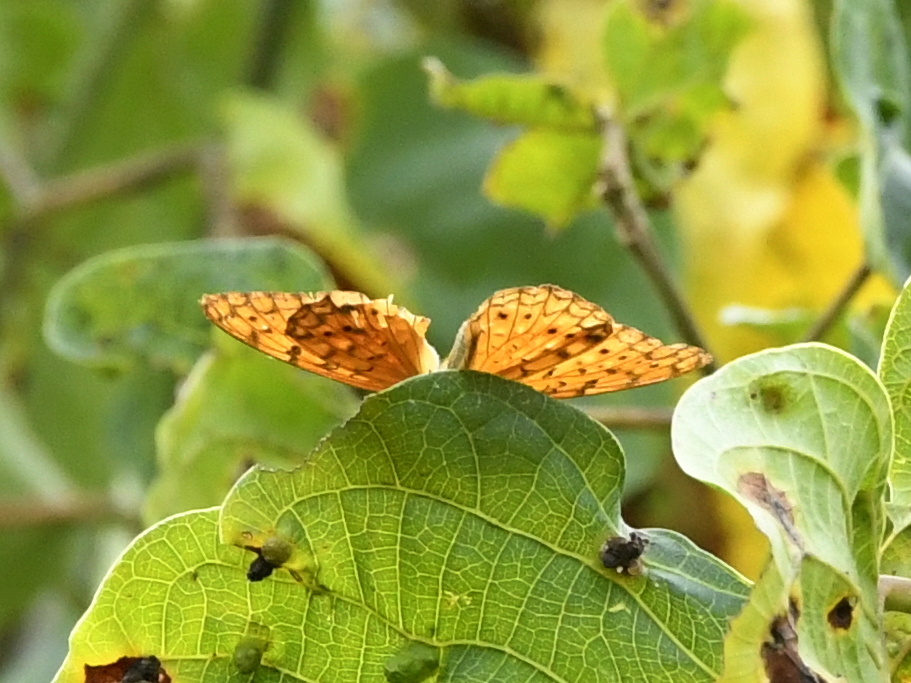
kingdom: Animalia
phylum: Arthropoda
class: Insecta
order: Lepidoptera
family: Nymphalidae
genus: Phalanta
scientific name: Phalanta phalantha
